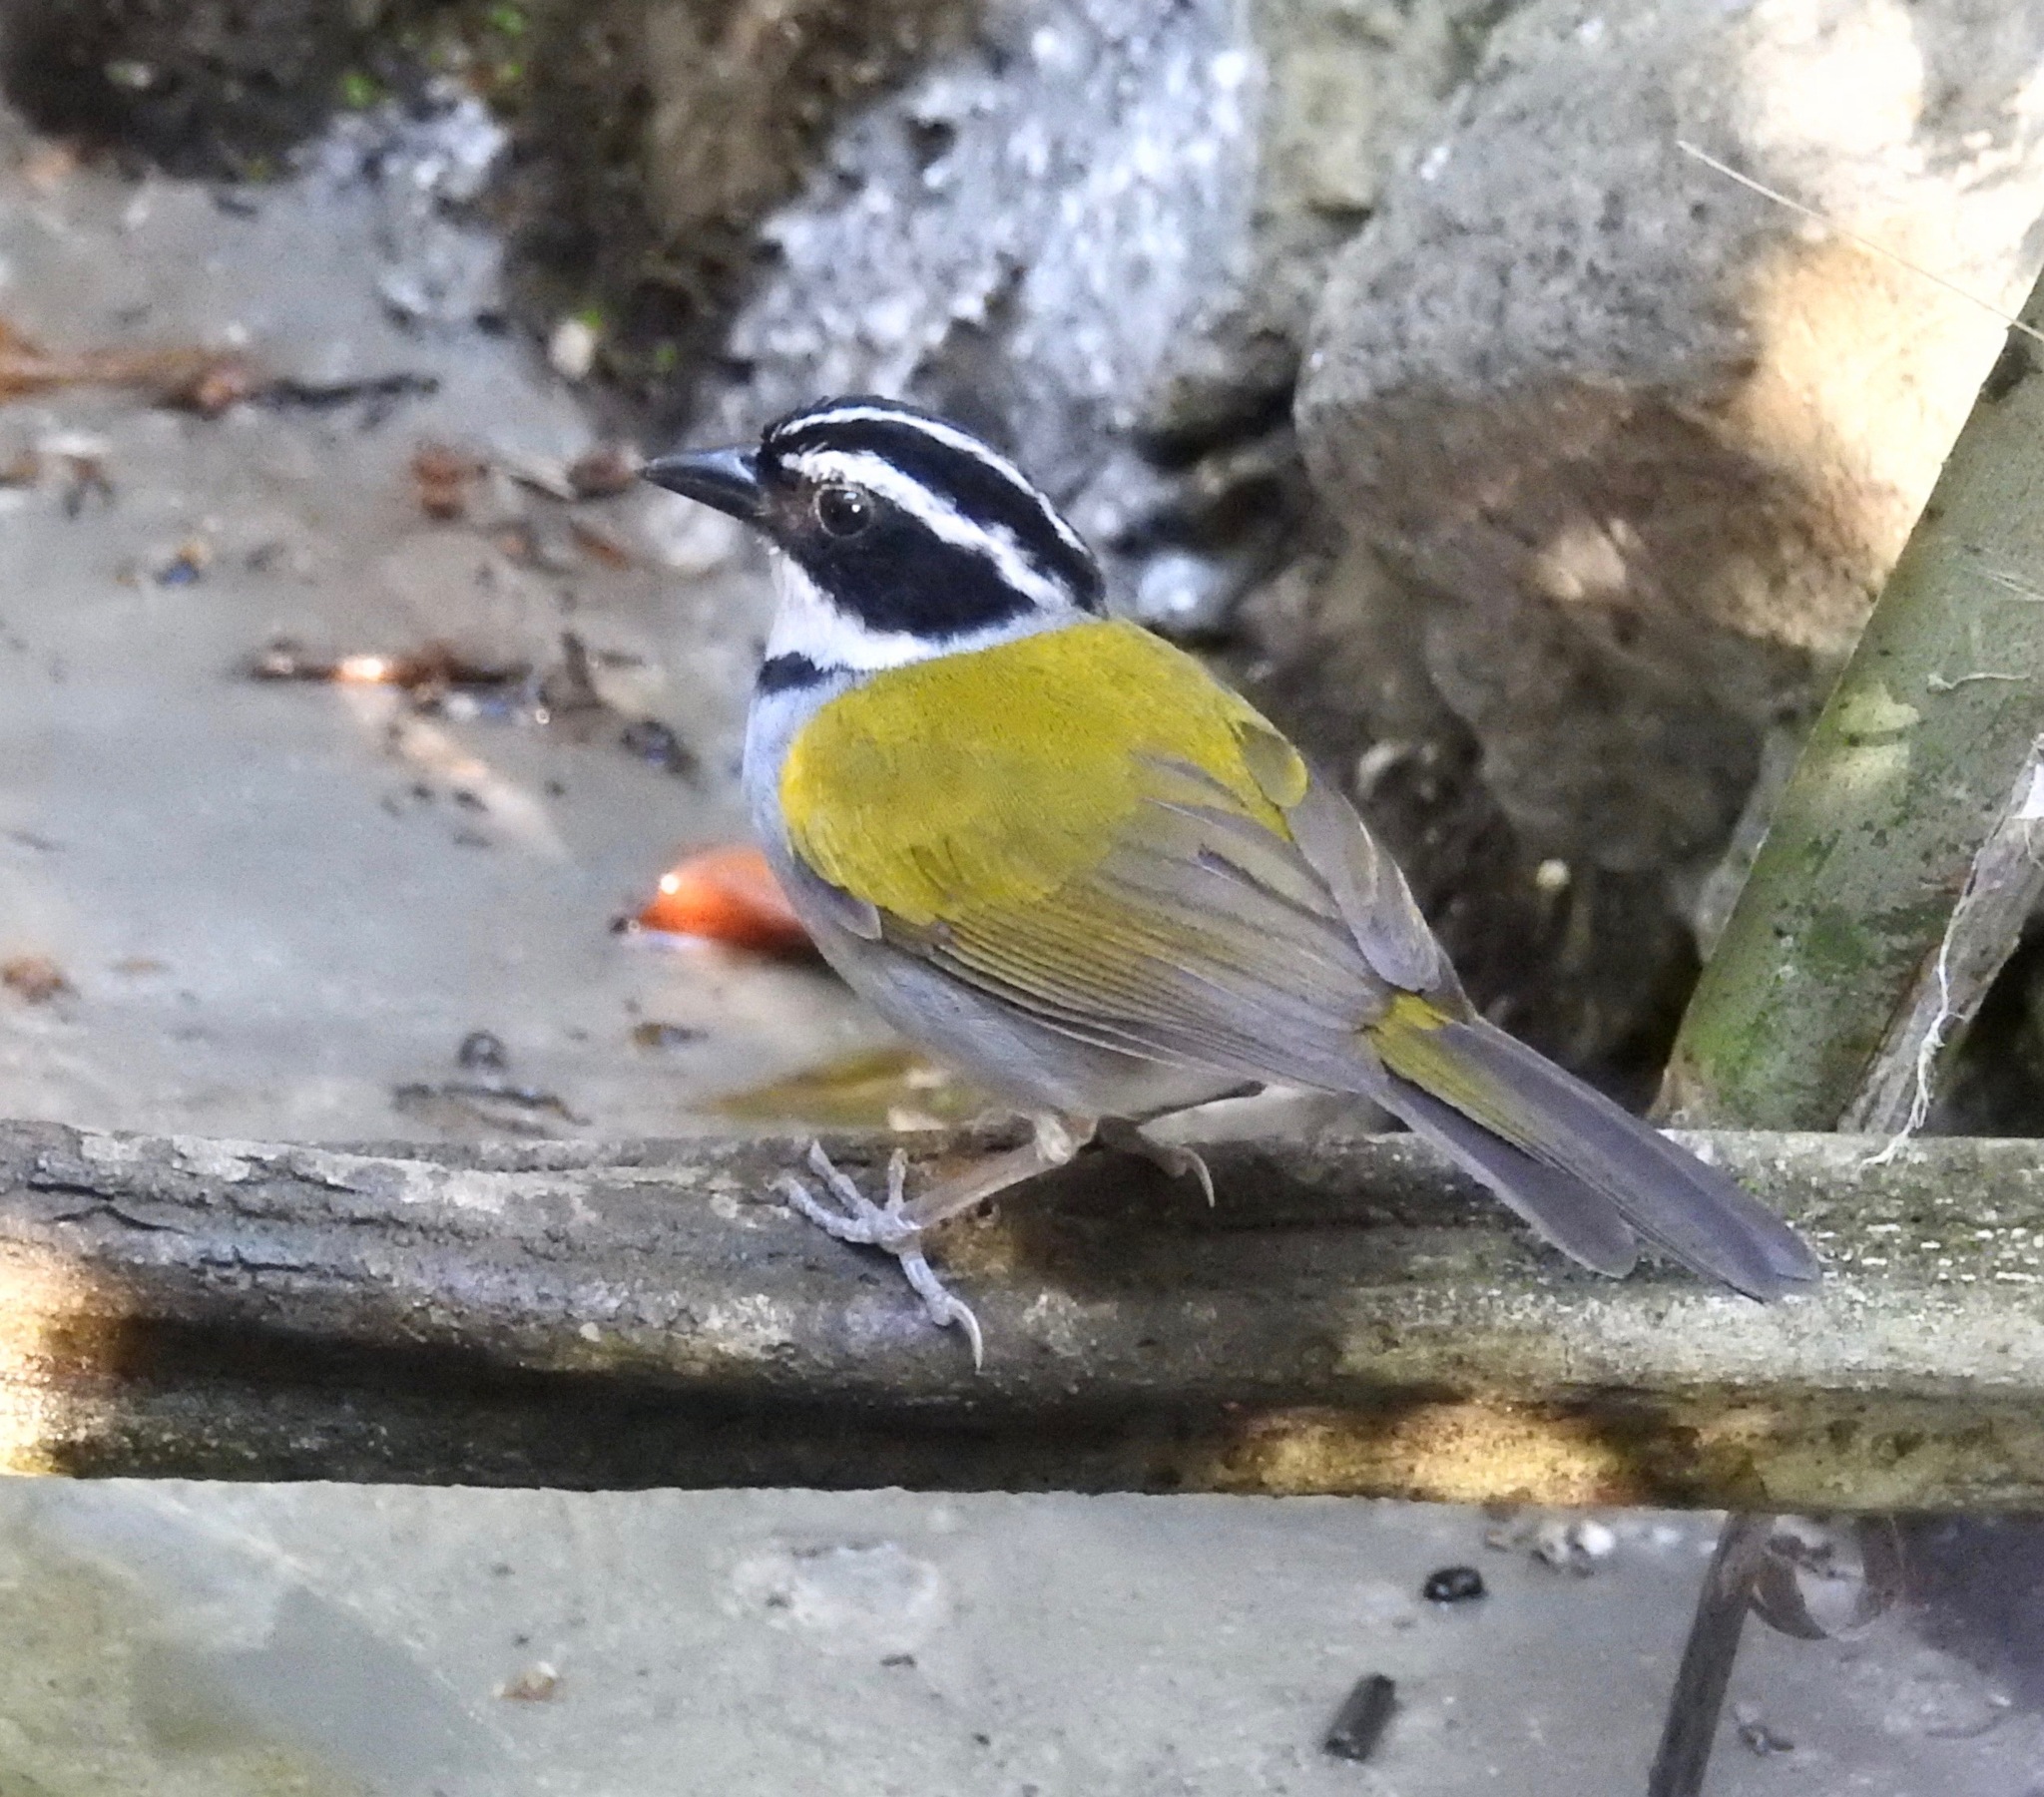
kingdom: Animalia
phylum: Chordata
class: Aves
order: Passeriformes
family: Passerellidae
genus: Arremon
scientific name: Arremon taciturnus
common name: Pectoral sparrow
